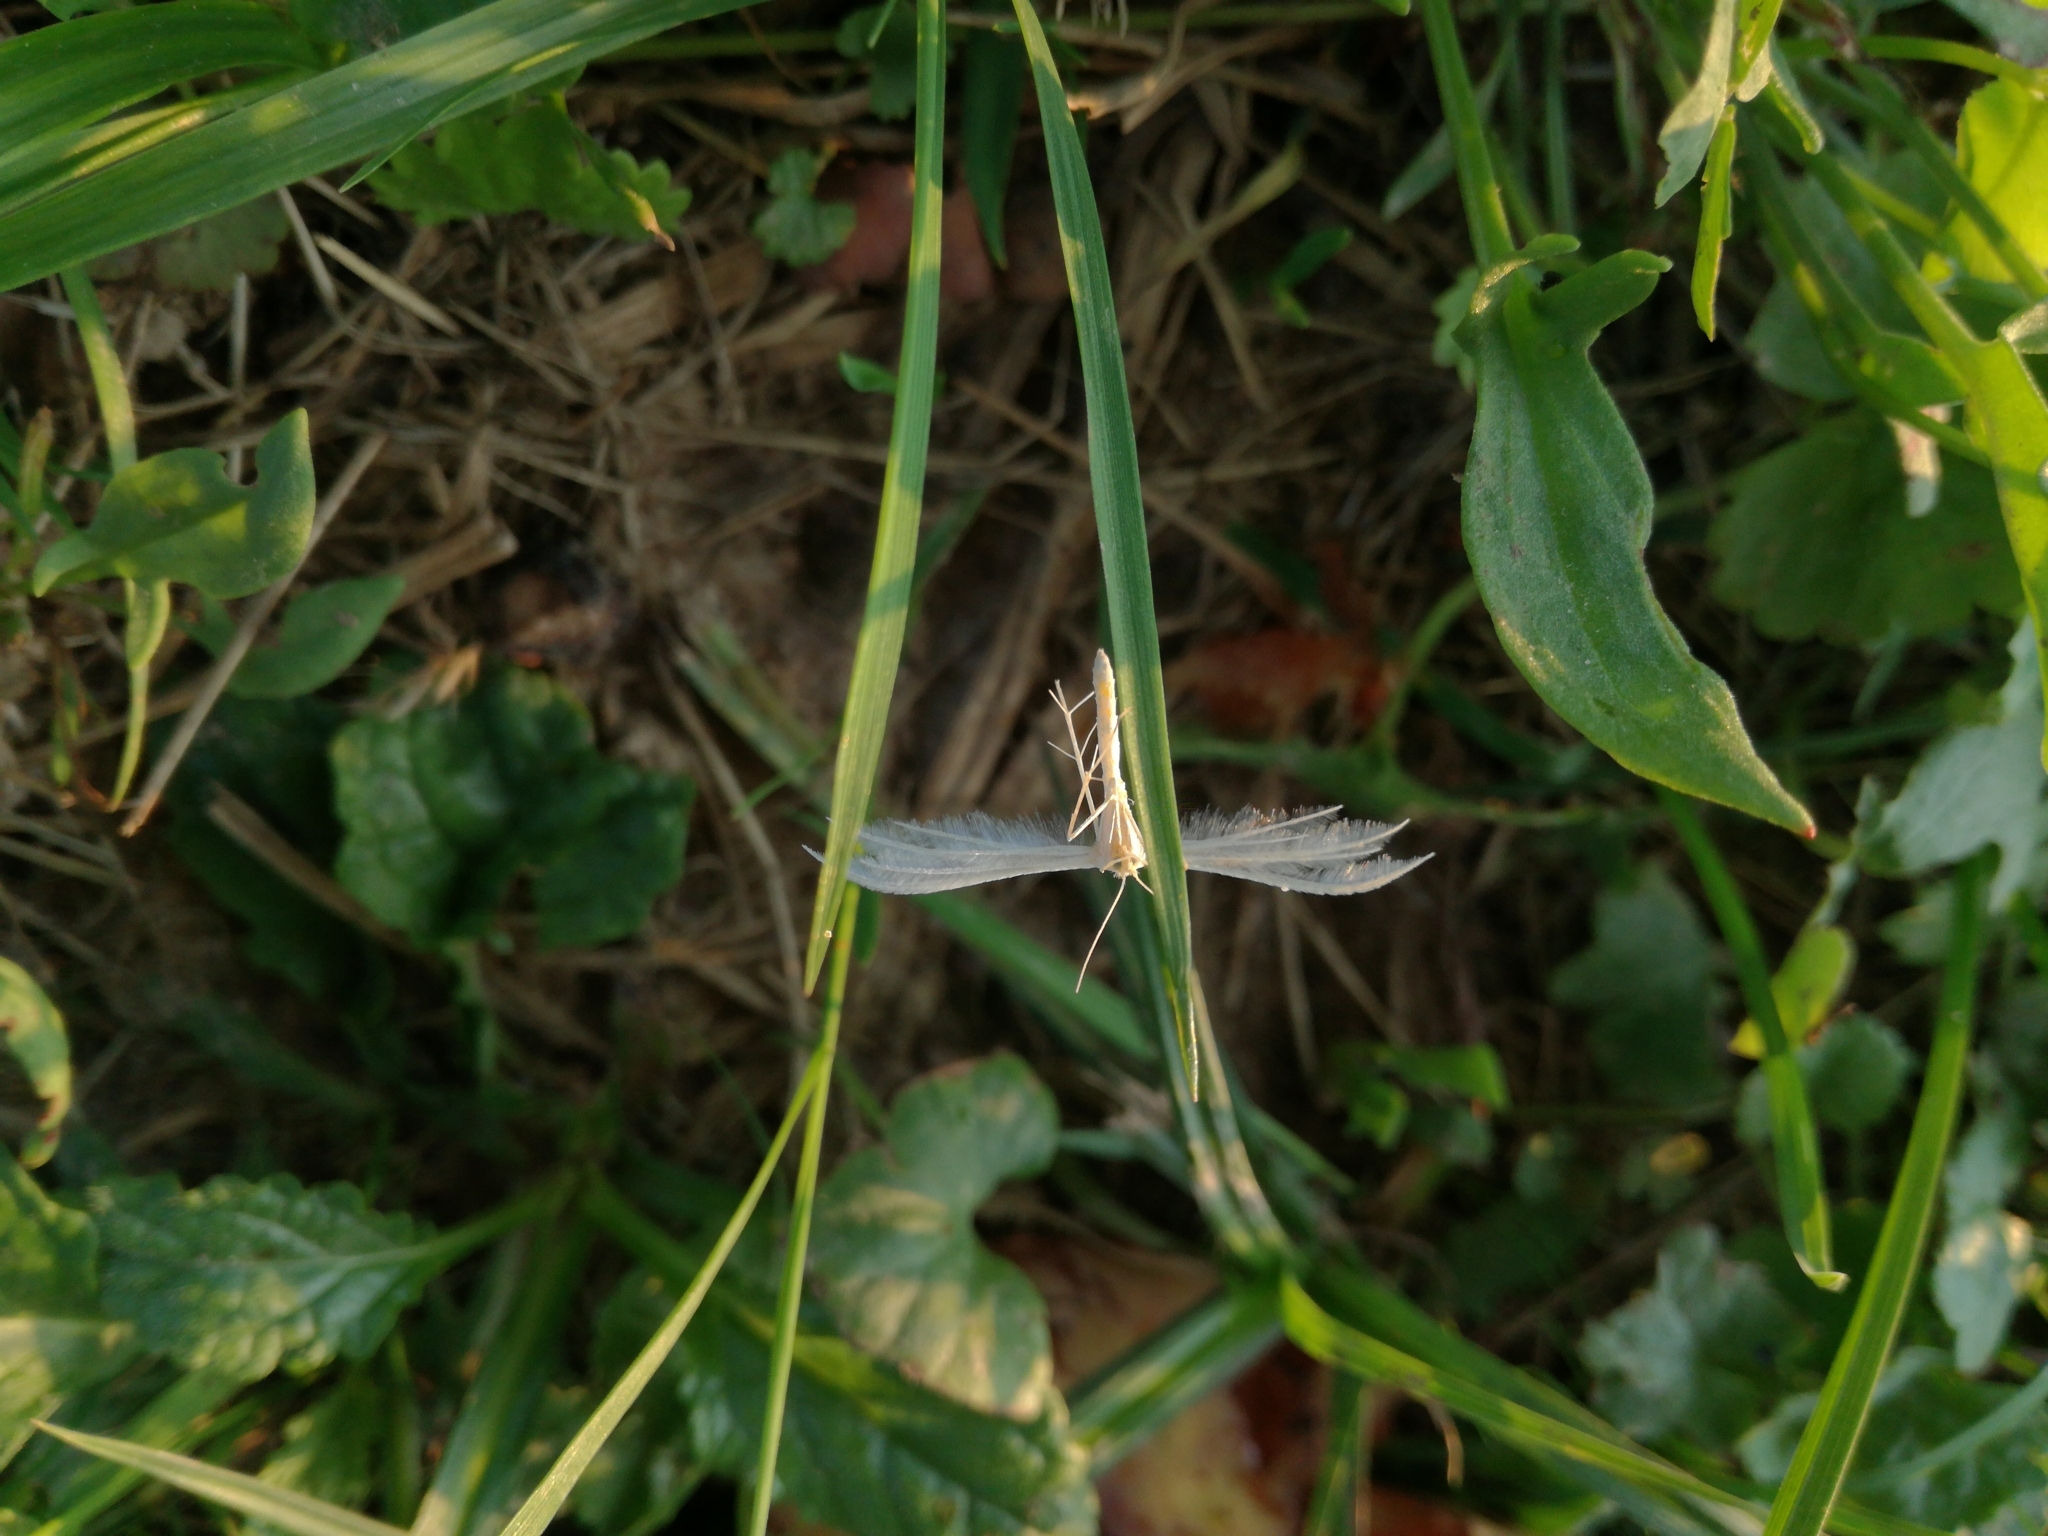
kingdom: Animalia
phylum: Arthropoda
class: Insecta
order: Lepidoptera
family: Pterophoridae
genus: Pterophorus
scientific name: Pterophorus pentadactyla
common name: White plume moth
